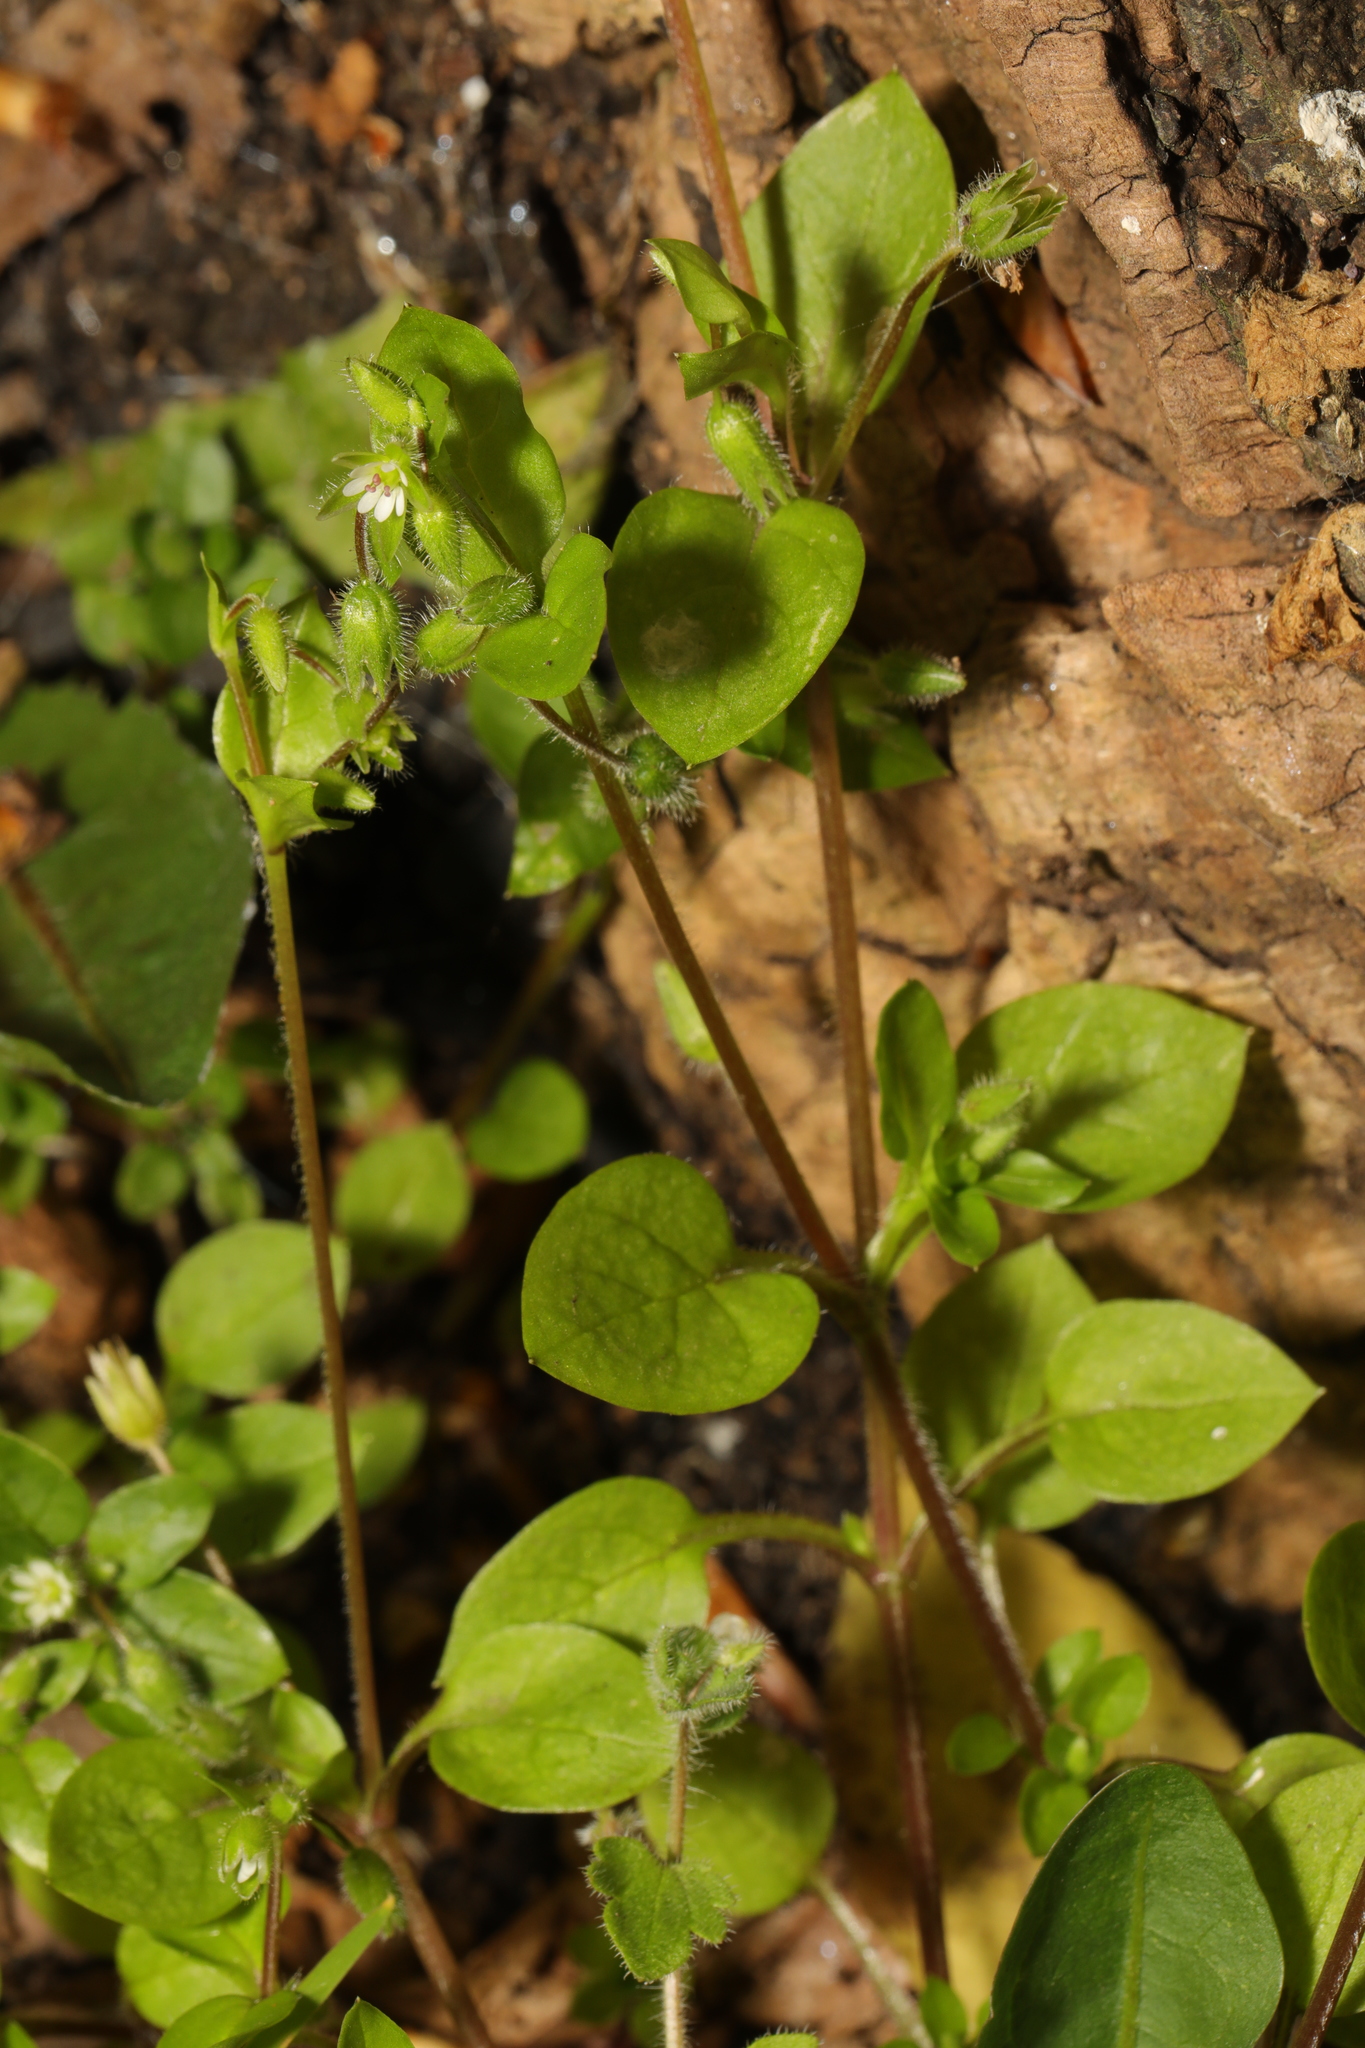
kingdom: Plantae
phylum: Tracheophyta
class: Magnoliopsida
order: Caryophyllales
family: Caryophyllaceae
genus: Stellaria
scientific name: Stellaria media
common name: Common chickweed
